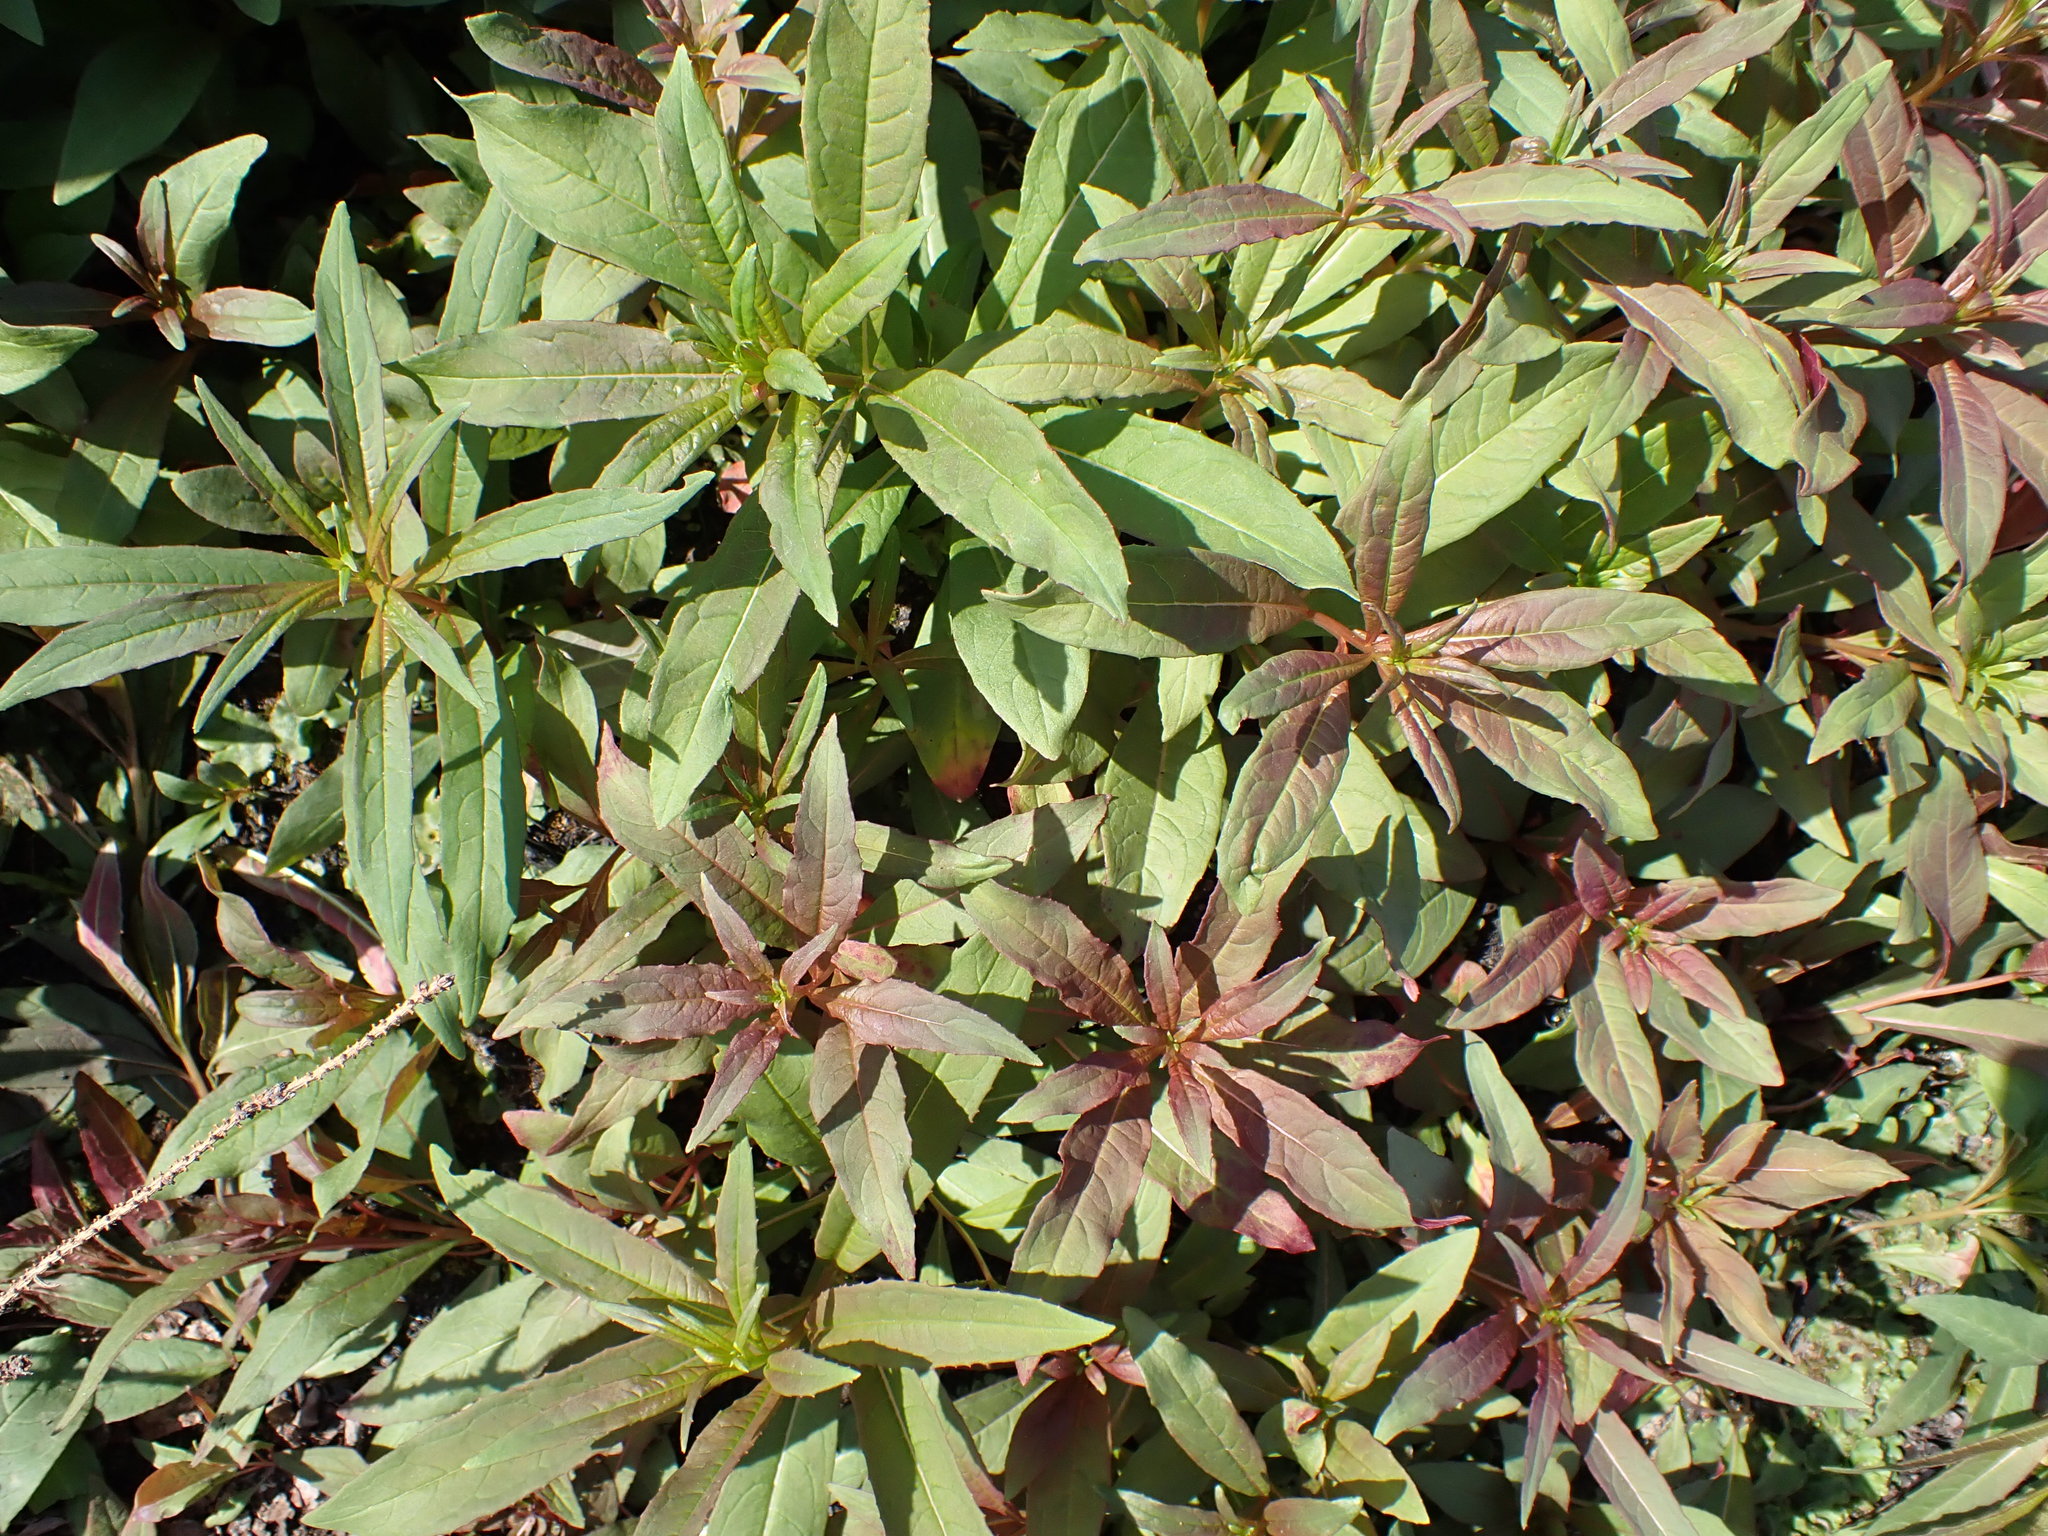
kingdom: Plantae
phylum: Tracheophyta
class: Magnoliopsida
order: Myrtales
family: Onagraceae
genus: Chamaenerion
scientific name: Chamaenerion angustifolium
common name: Fireweed
